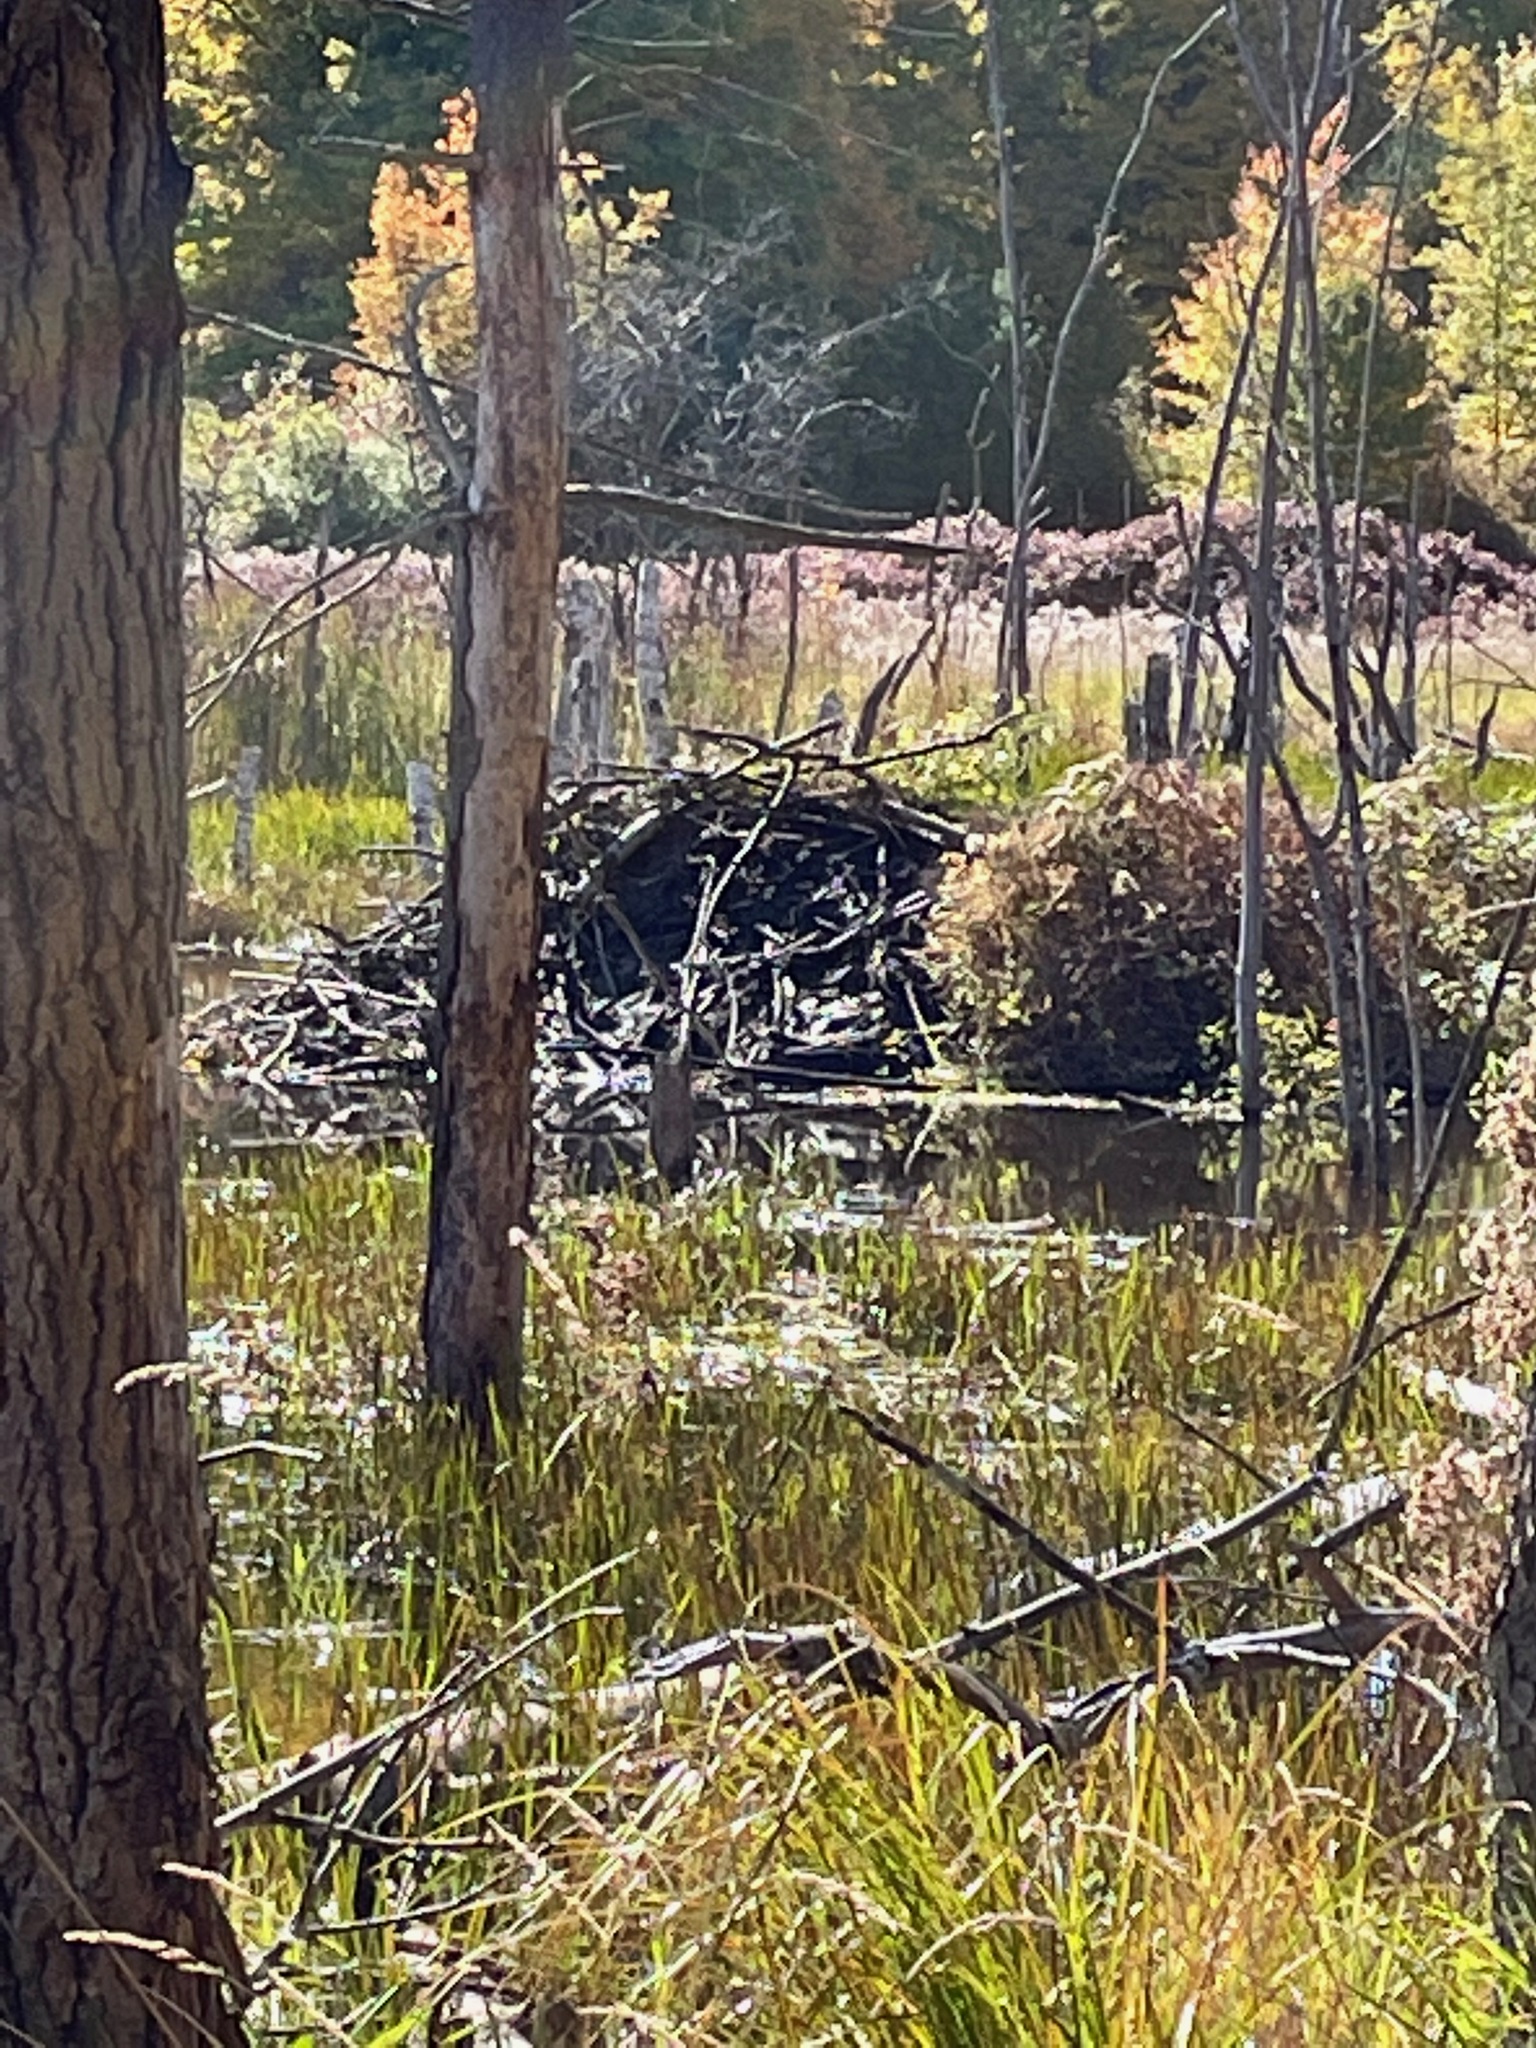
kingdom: Animalia
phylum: Chordata
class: Mammalia
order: Rodentia
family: Castoridae
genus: Castor
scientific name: Castor canadensis
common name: American beaver
